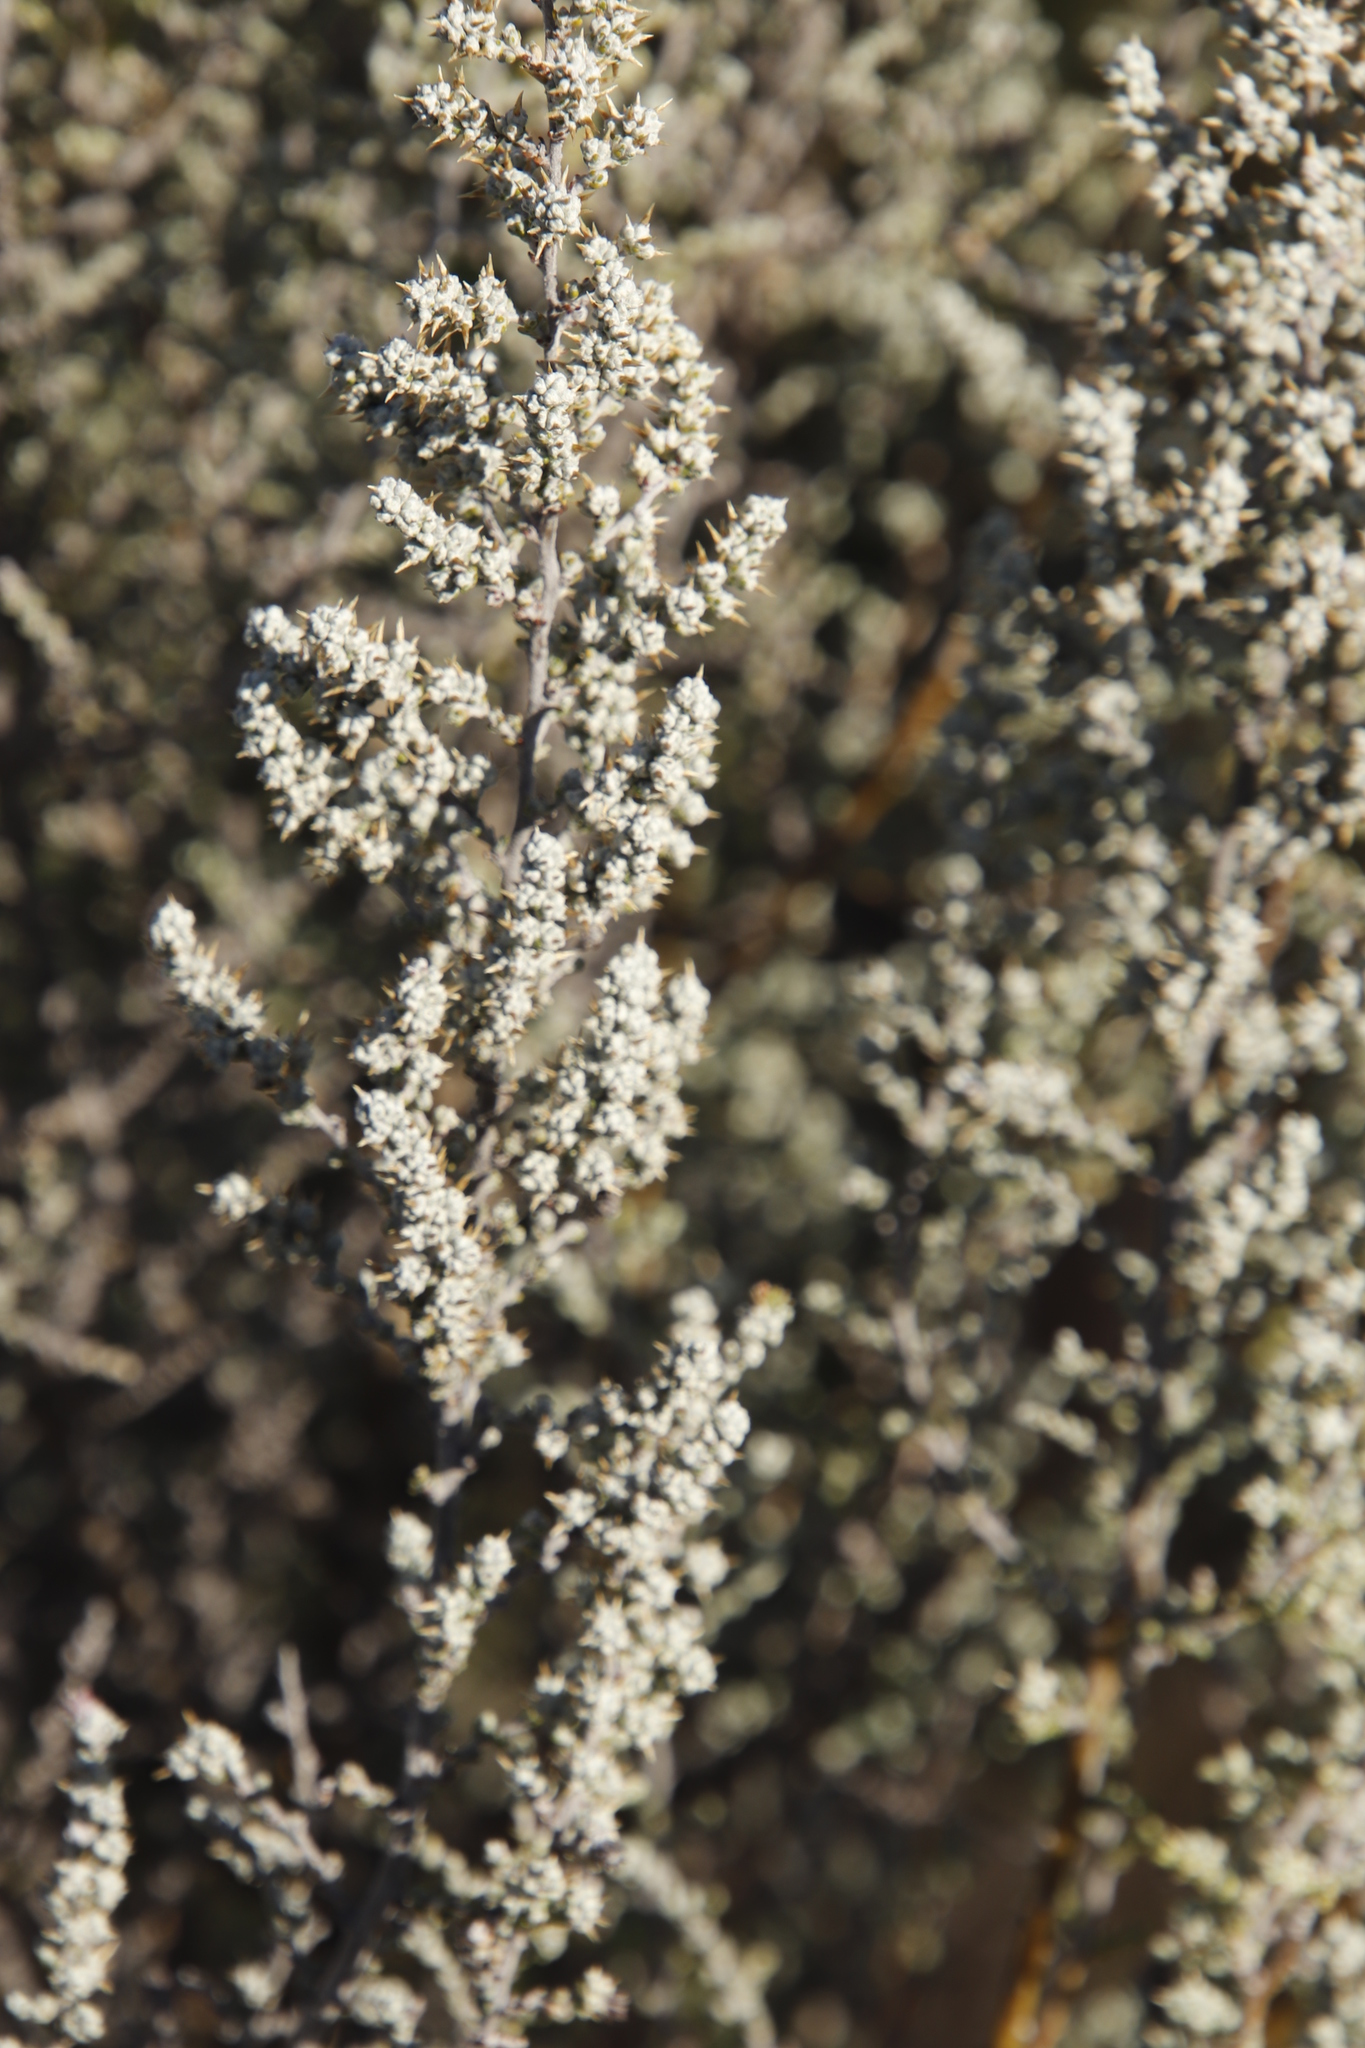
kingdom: Plantae
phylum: Tracheophyta
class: Magnoliopsida
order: Asterales
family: Asteraceae
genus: Seriphium
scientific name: Seriphium plumosum
